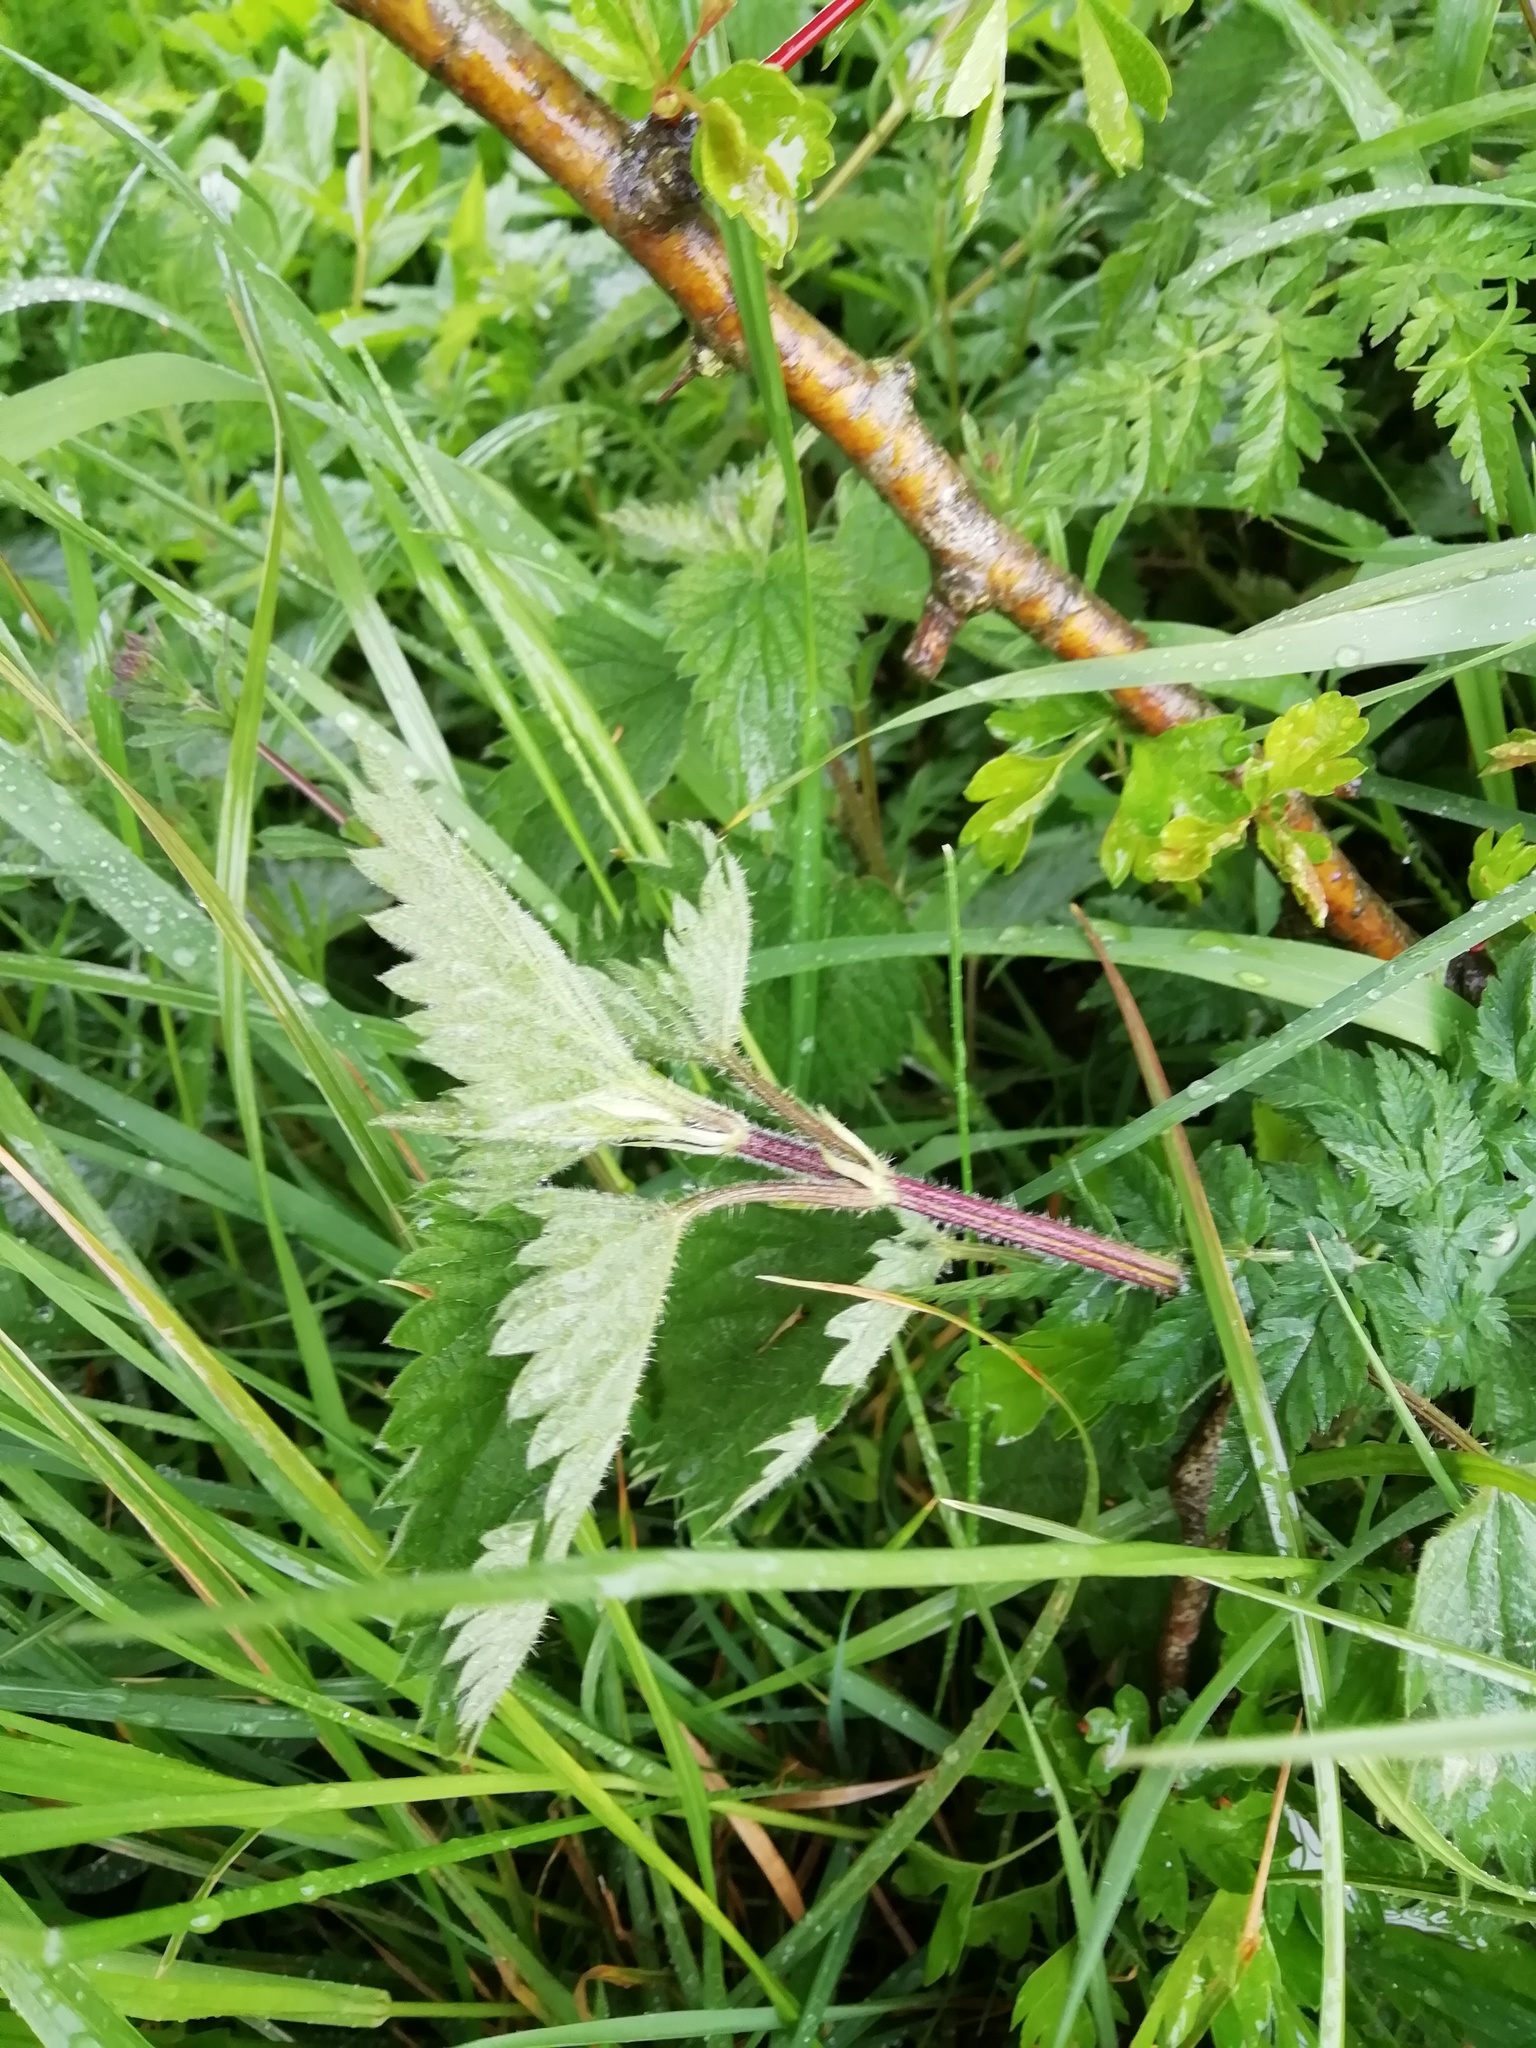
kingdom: Plantae
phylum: Tracheophyta
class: Magnoliopsida
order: Rosales
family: Urticaceae
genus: Urtica
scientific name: Urtica dioica
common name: Common nettle
